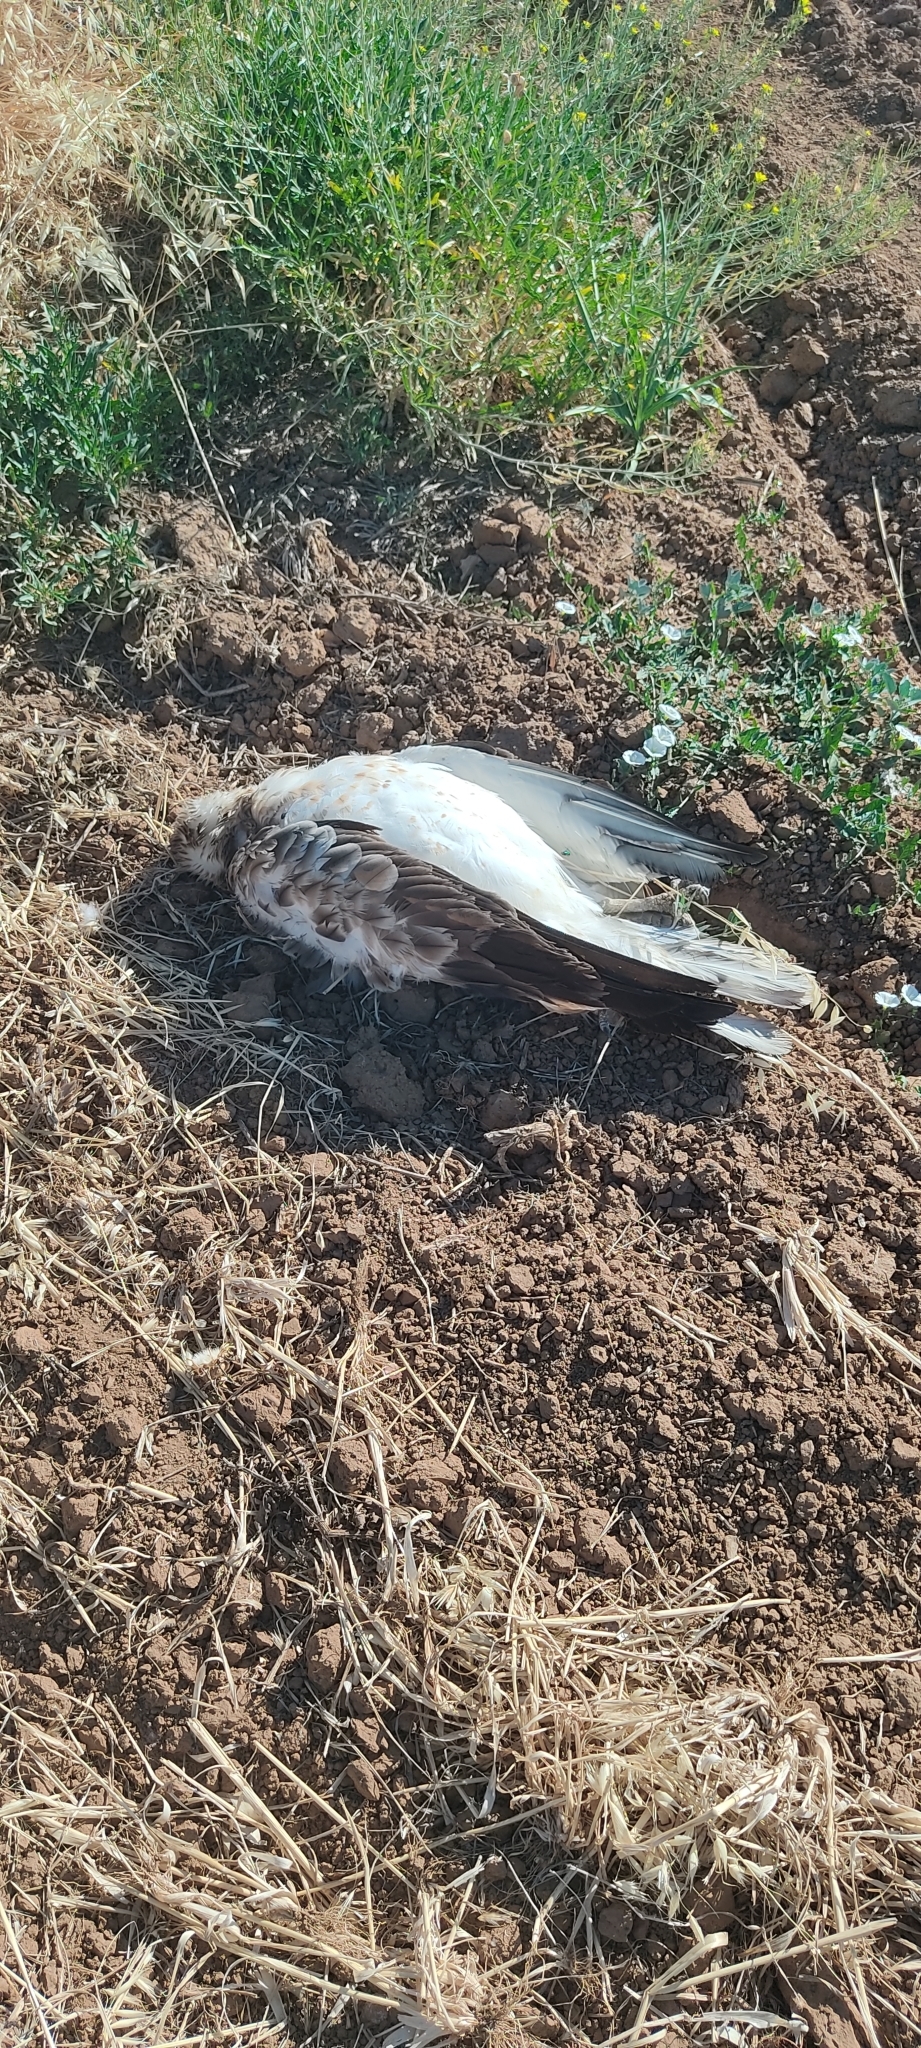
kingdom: Animalia
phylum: Chordata
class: Aves
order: Accipitriformes
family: Accipitridae
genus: Circaetus
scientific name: Circaetus gallicus
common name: Short-toed snake eagle
